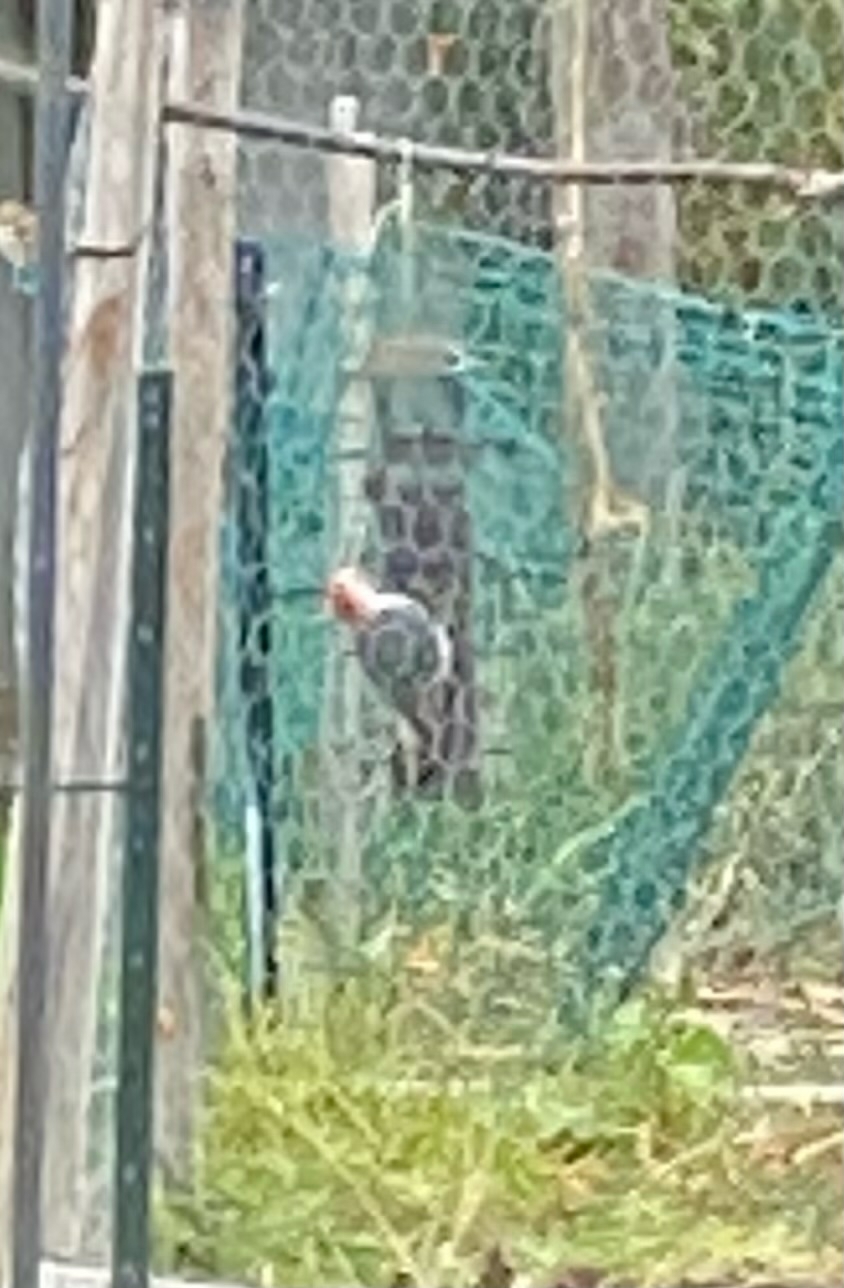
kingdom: Animalia
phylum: Chordata
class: Aves
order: Piciformes
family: Picidae
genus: Melanerpes
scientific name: Melanerpes carolinus
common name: Red-bellied woodpecker
